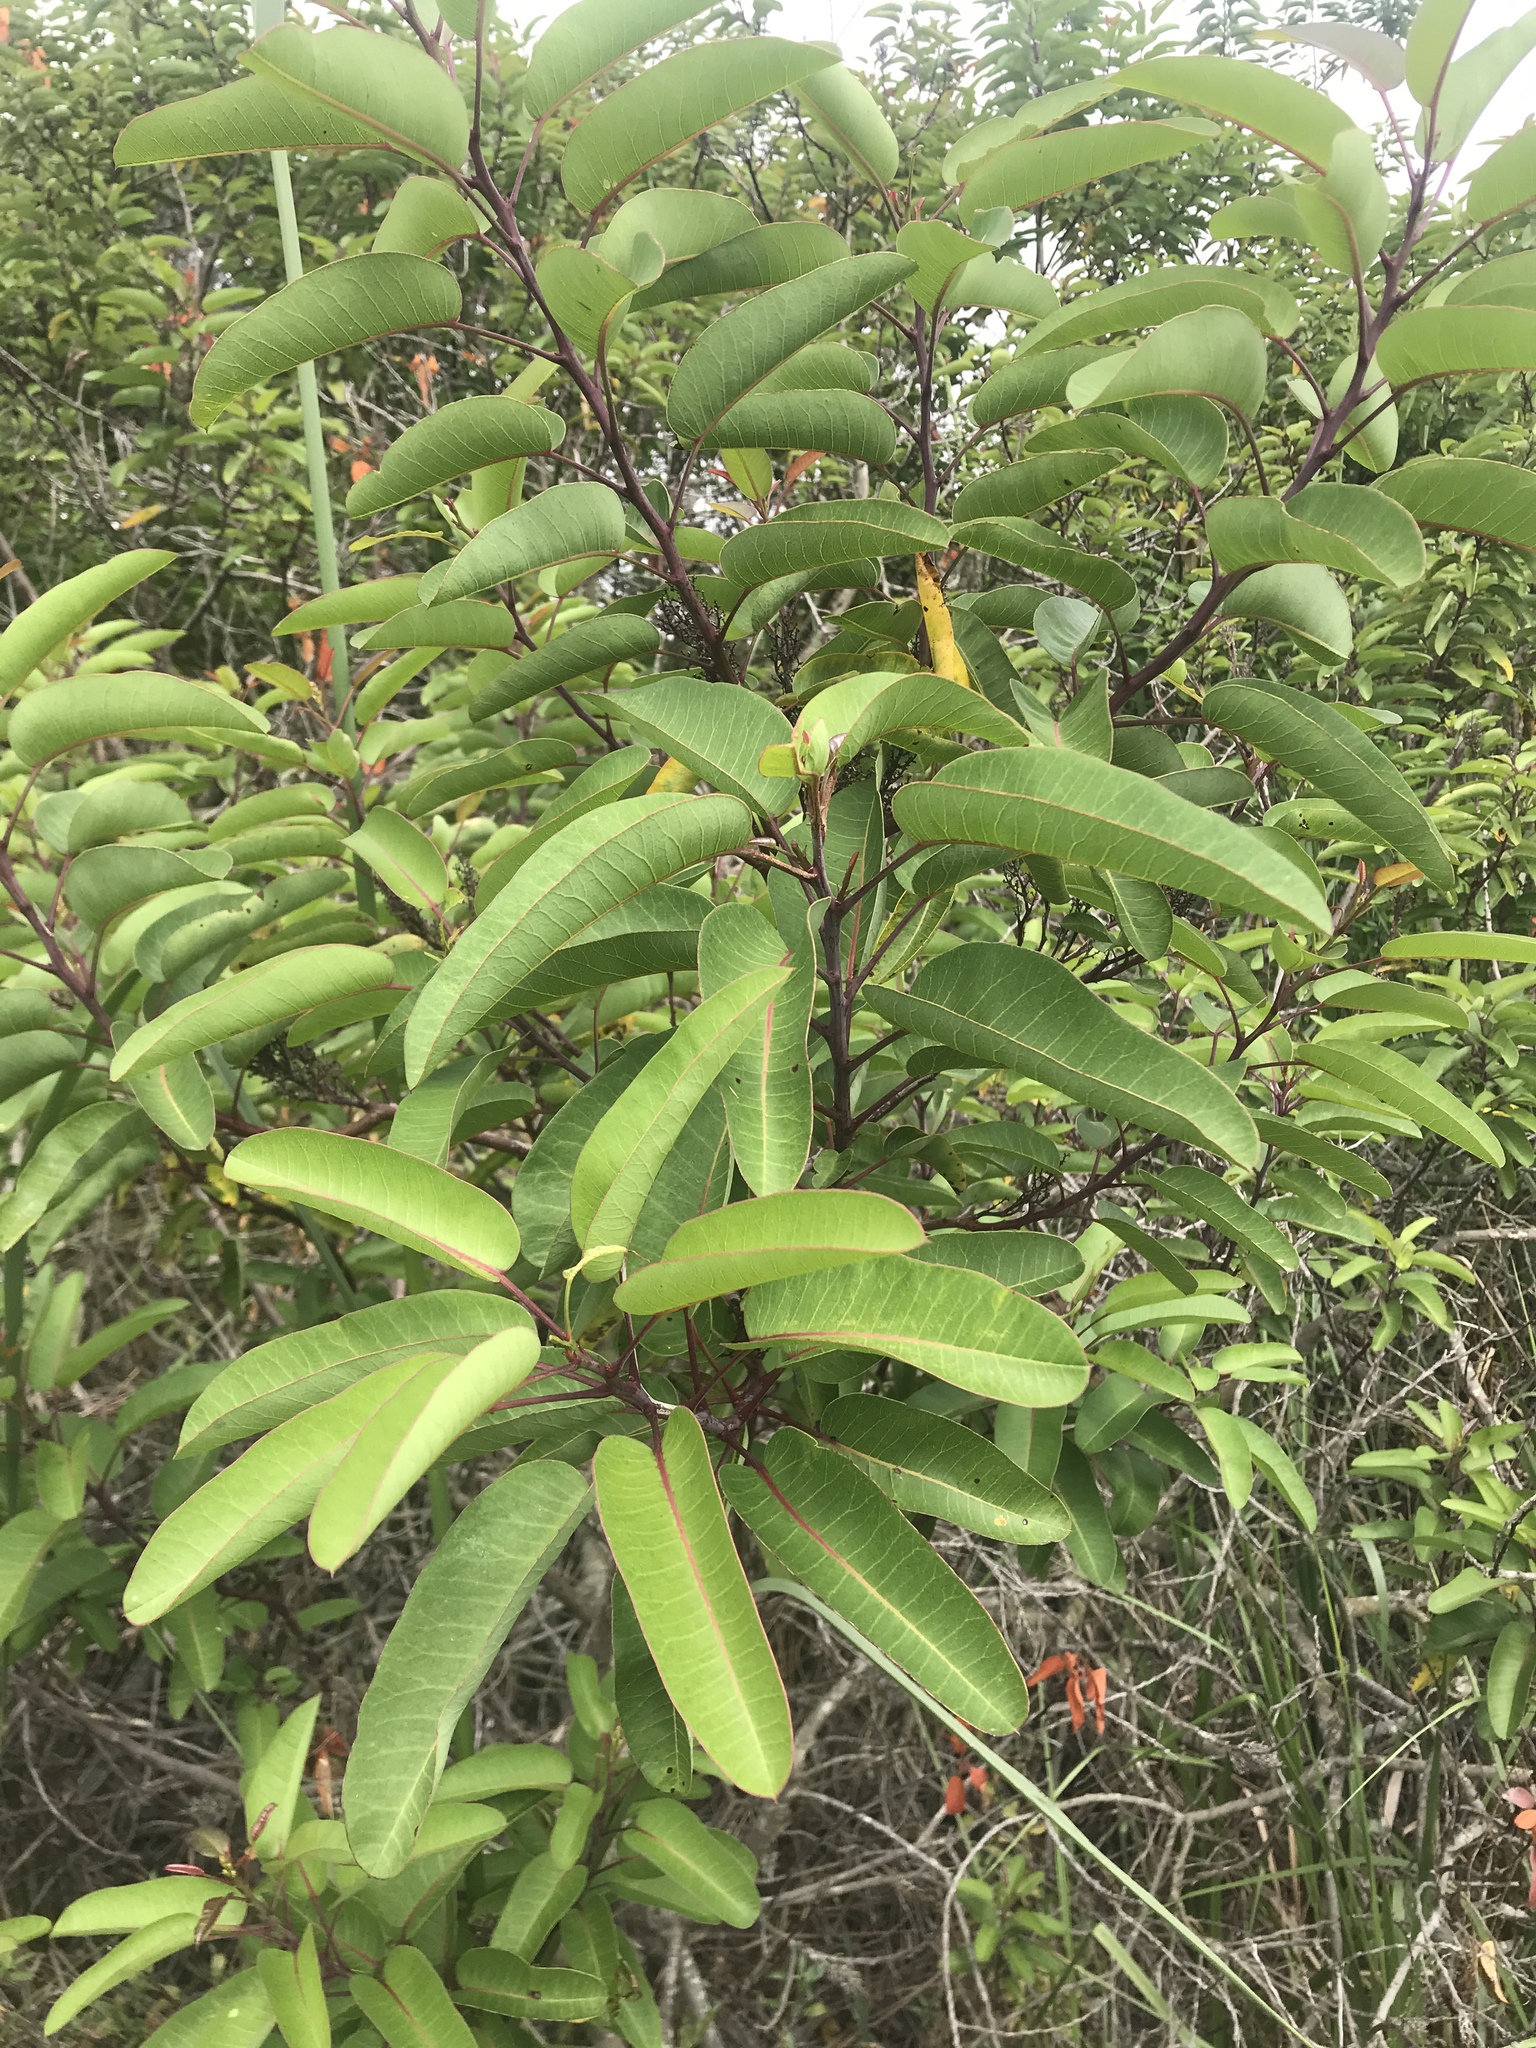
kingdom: Plantae
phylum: Tracheophyta
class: Magnoliopsida
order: Sapindales
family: Anacardiaceae
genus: Malosma
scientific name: Malosma laurina
